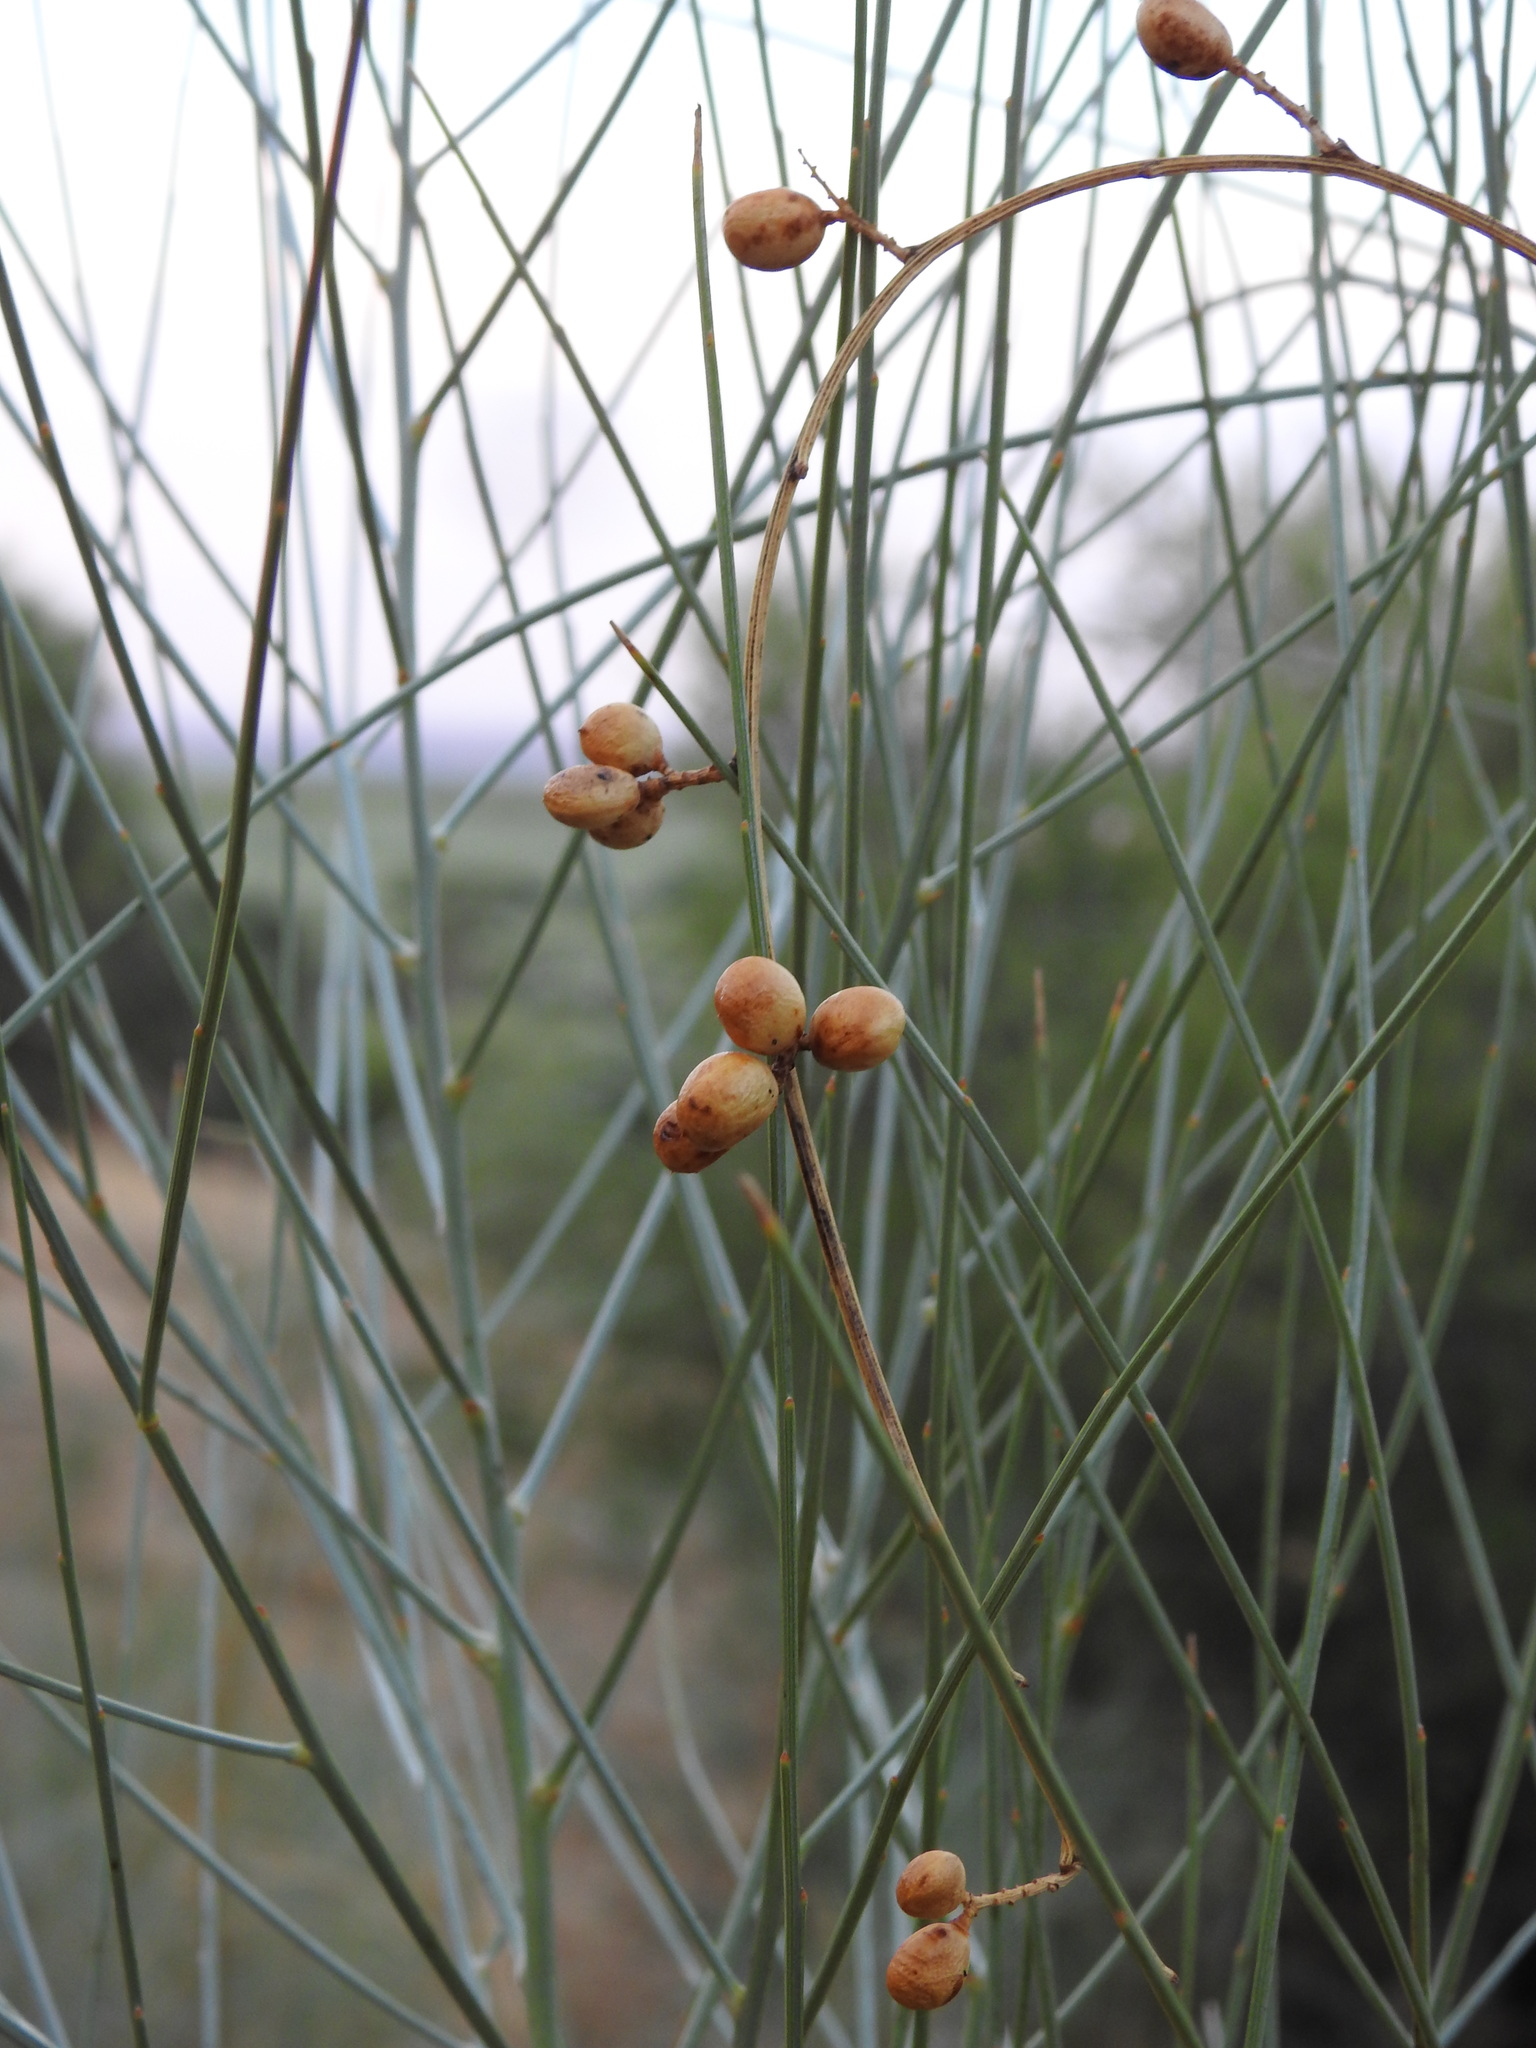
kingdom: Plantae
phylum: Tracheophyta
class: Magnoliopsida
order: Fabales
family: Fabaceae
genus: Retama
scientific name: Retama sphaerocarpa
